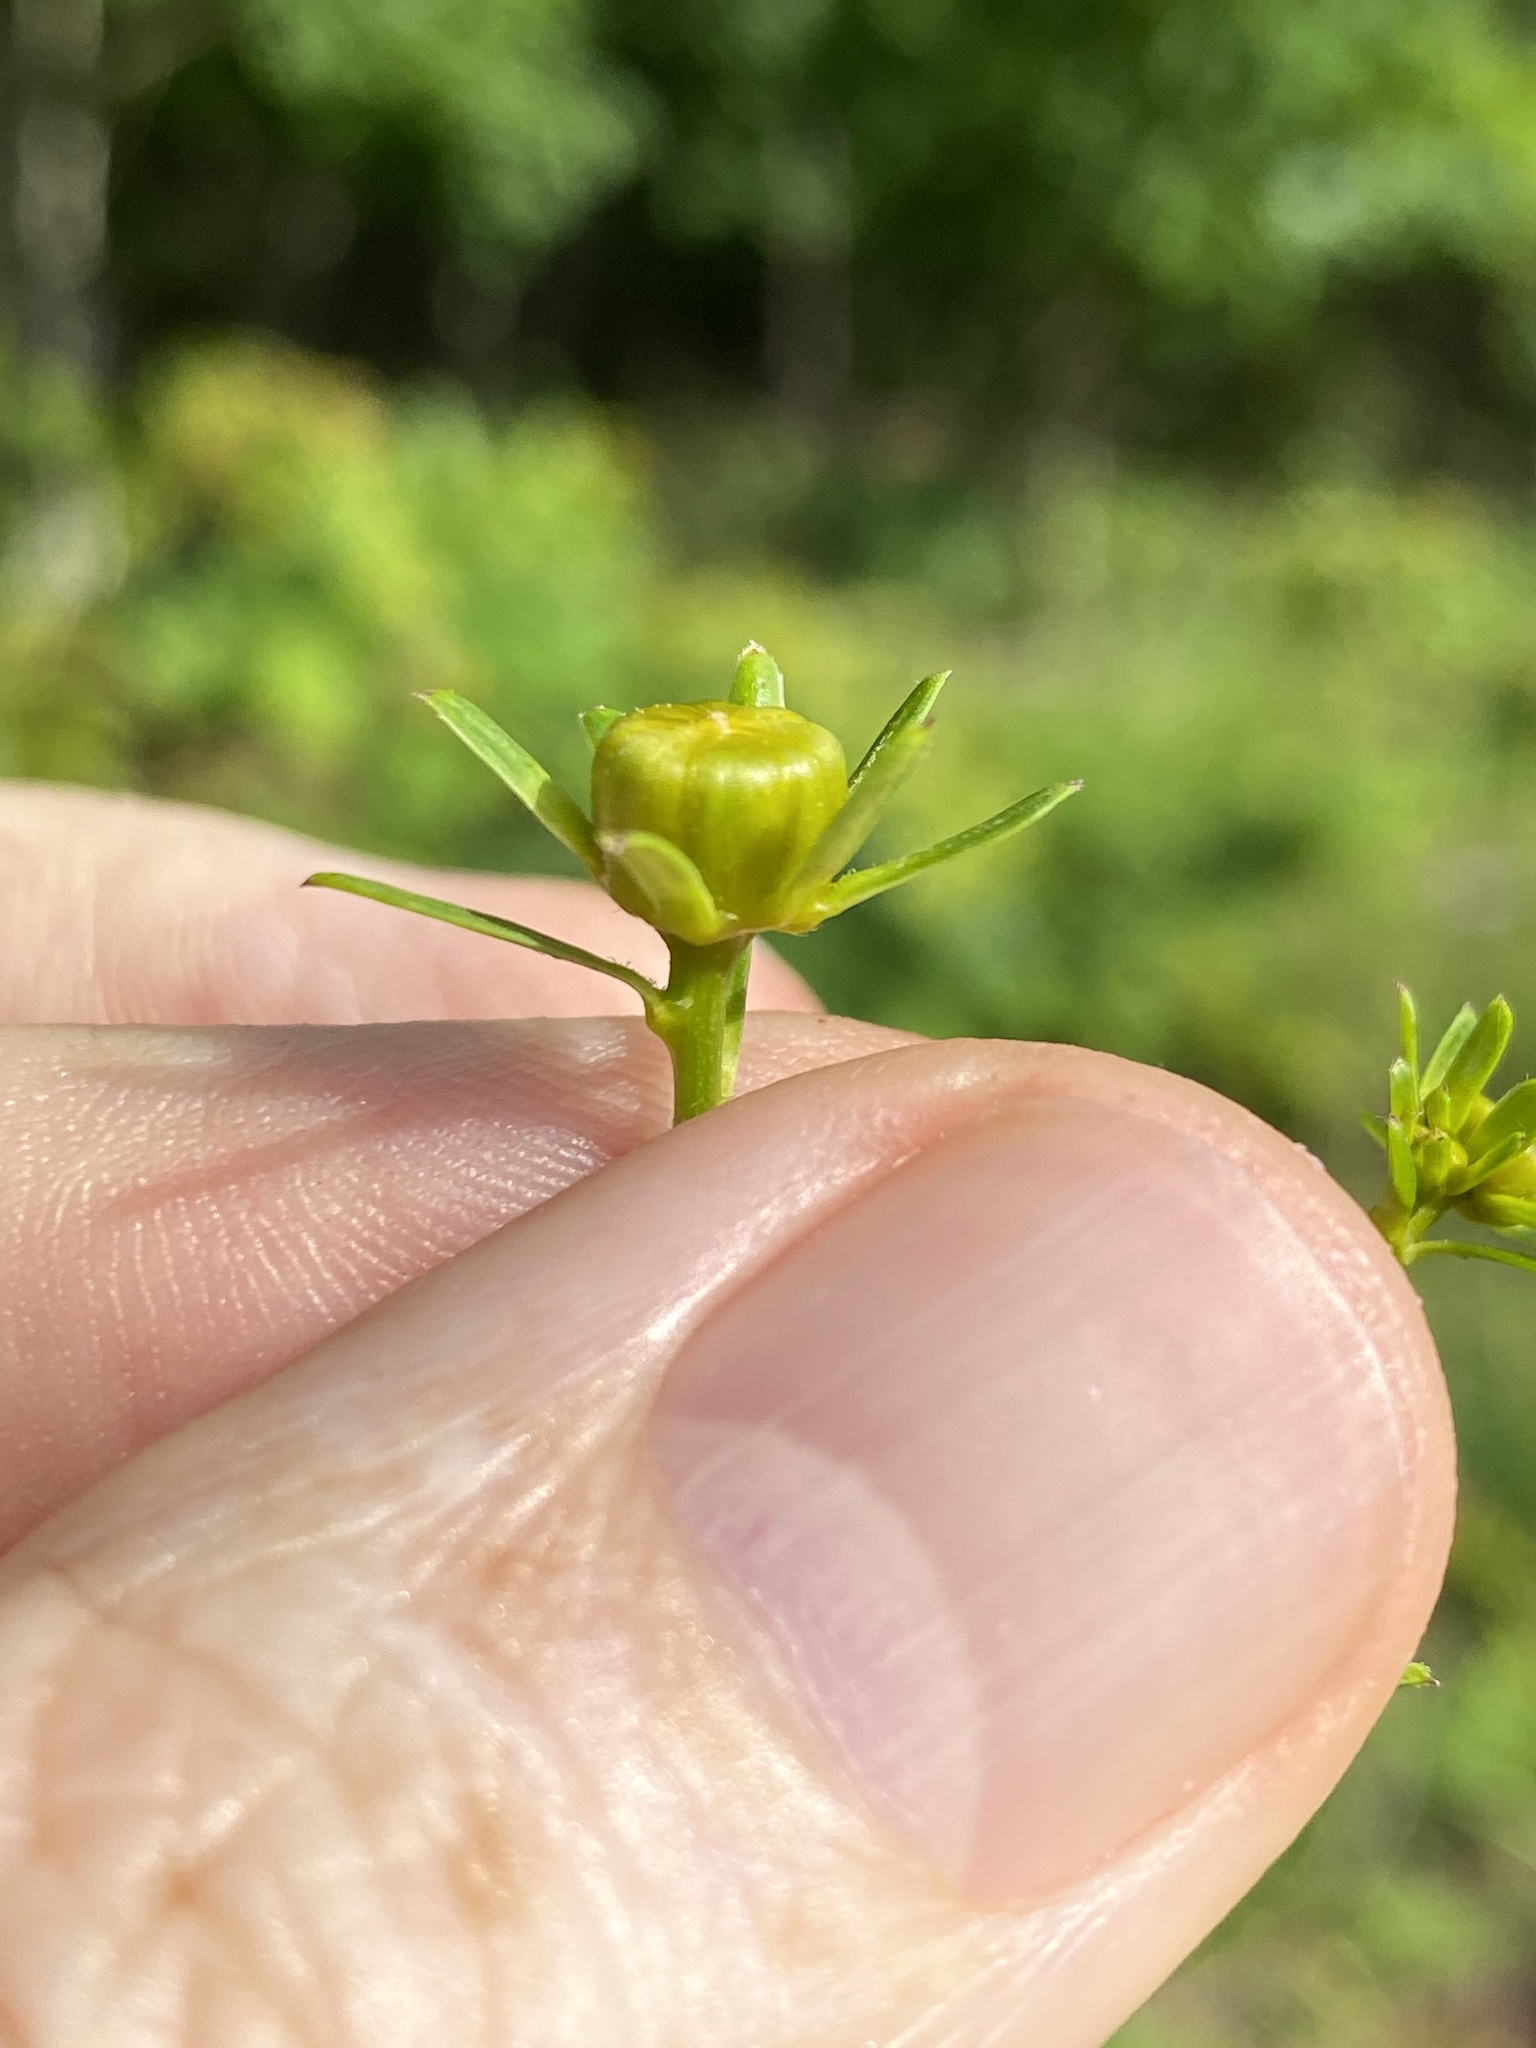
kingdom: Plantae
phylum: Tracheophyta
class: Magnoliopsida
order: Asterales
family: Asteraceae
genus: Coreopsis
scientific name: Coreopsis major
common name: Forest tickseed
